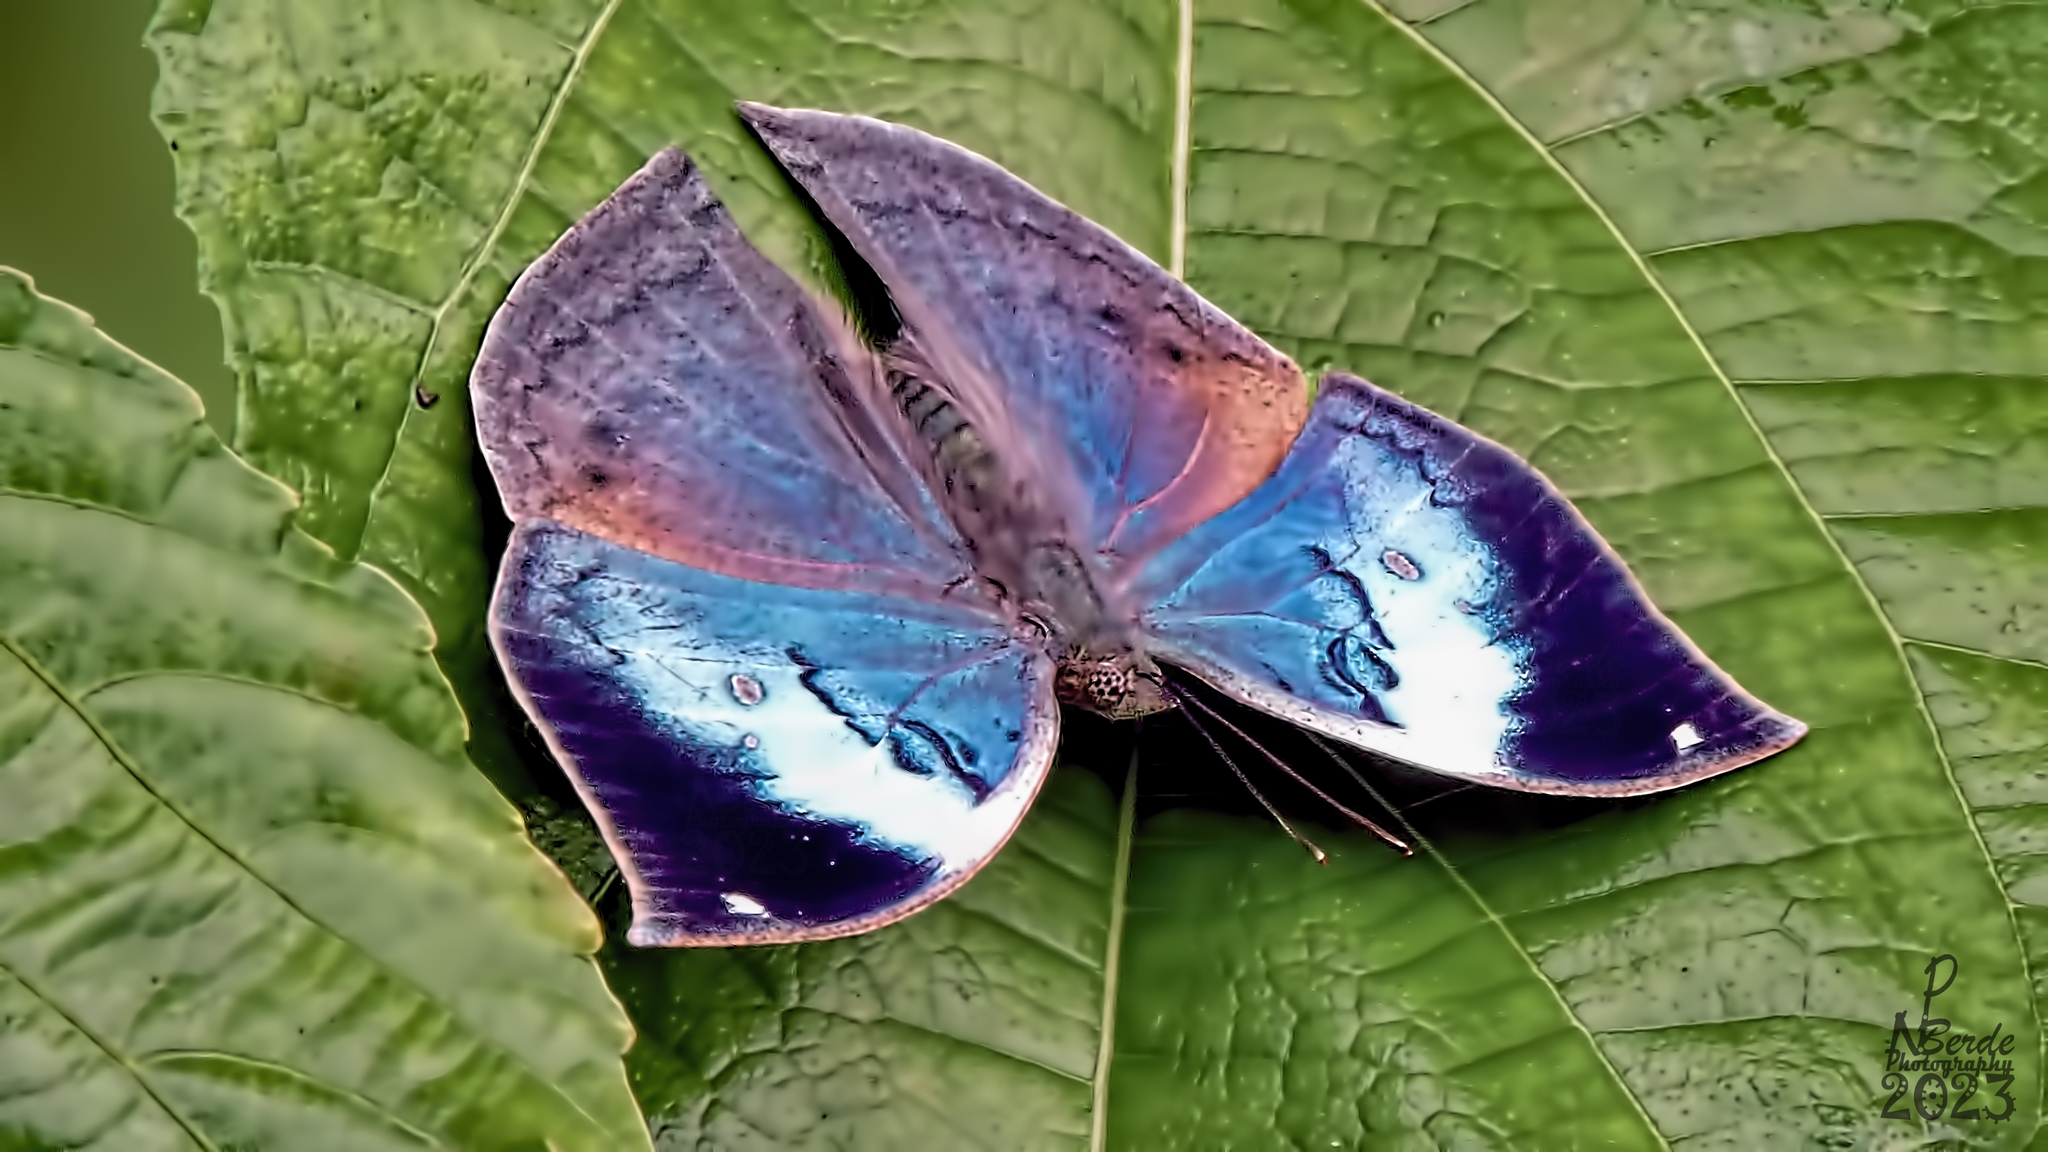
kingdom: Animalia
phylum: Arthropoda
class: Insecta
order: Lepidoptera
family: Nymphalidae
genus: Kallima
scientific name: Kallima horsfieldii
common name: Sahyadri blue oakleaf
